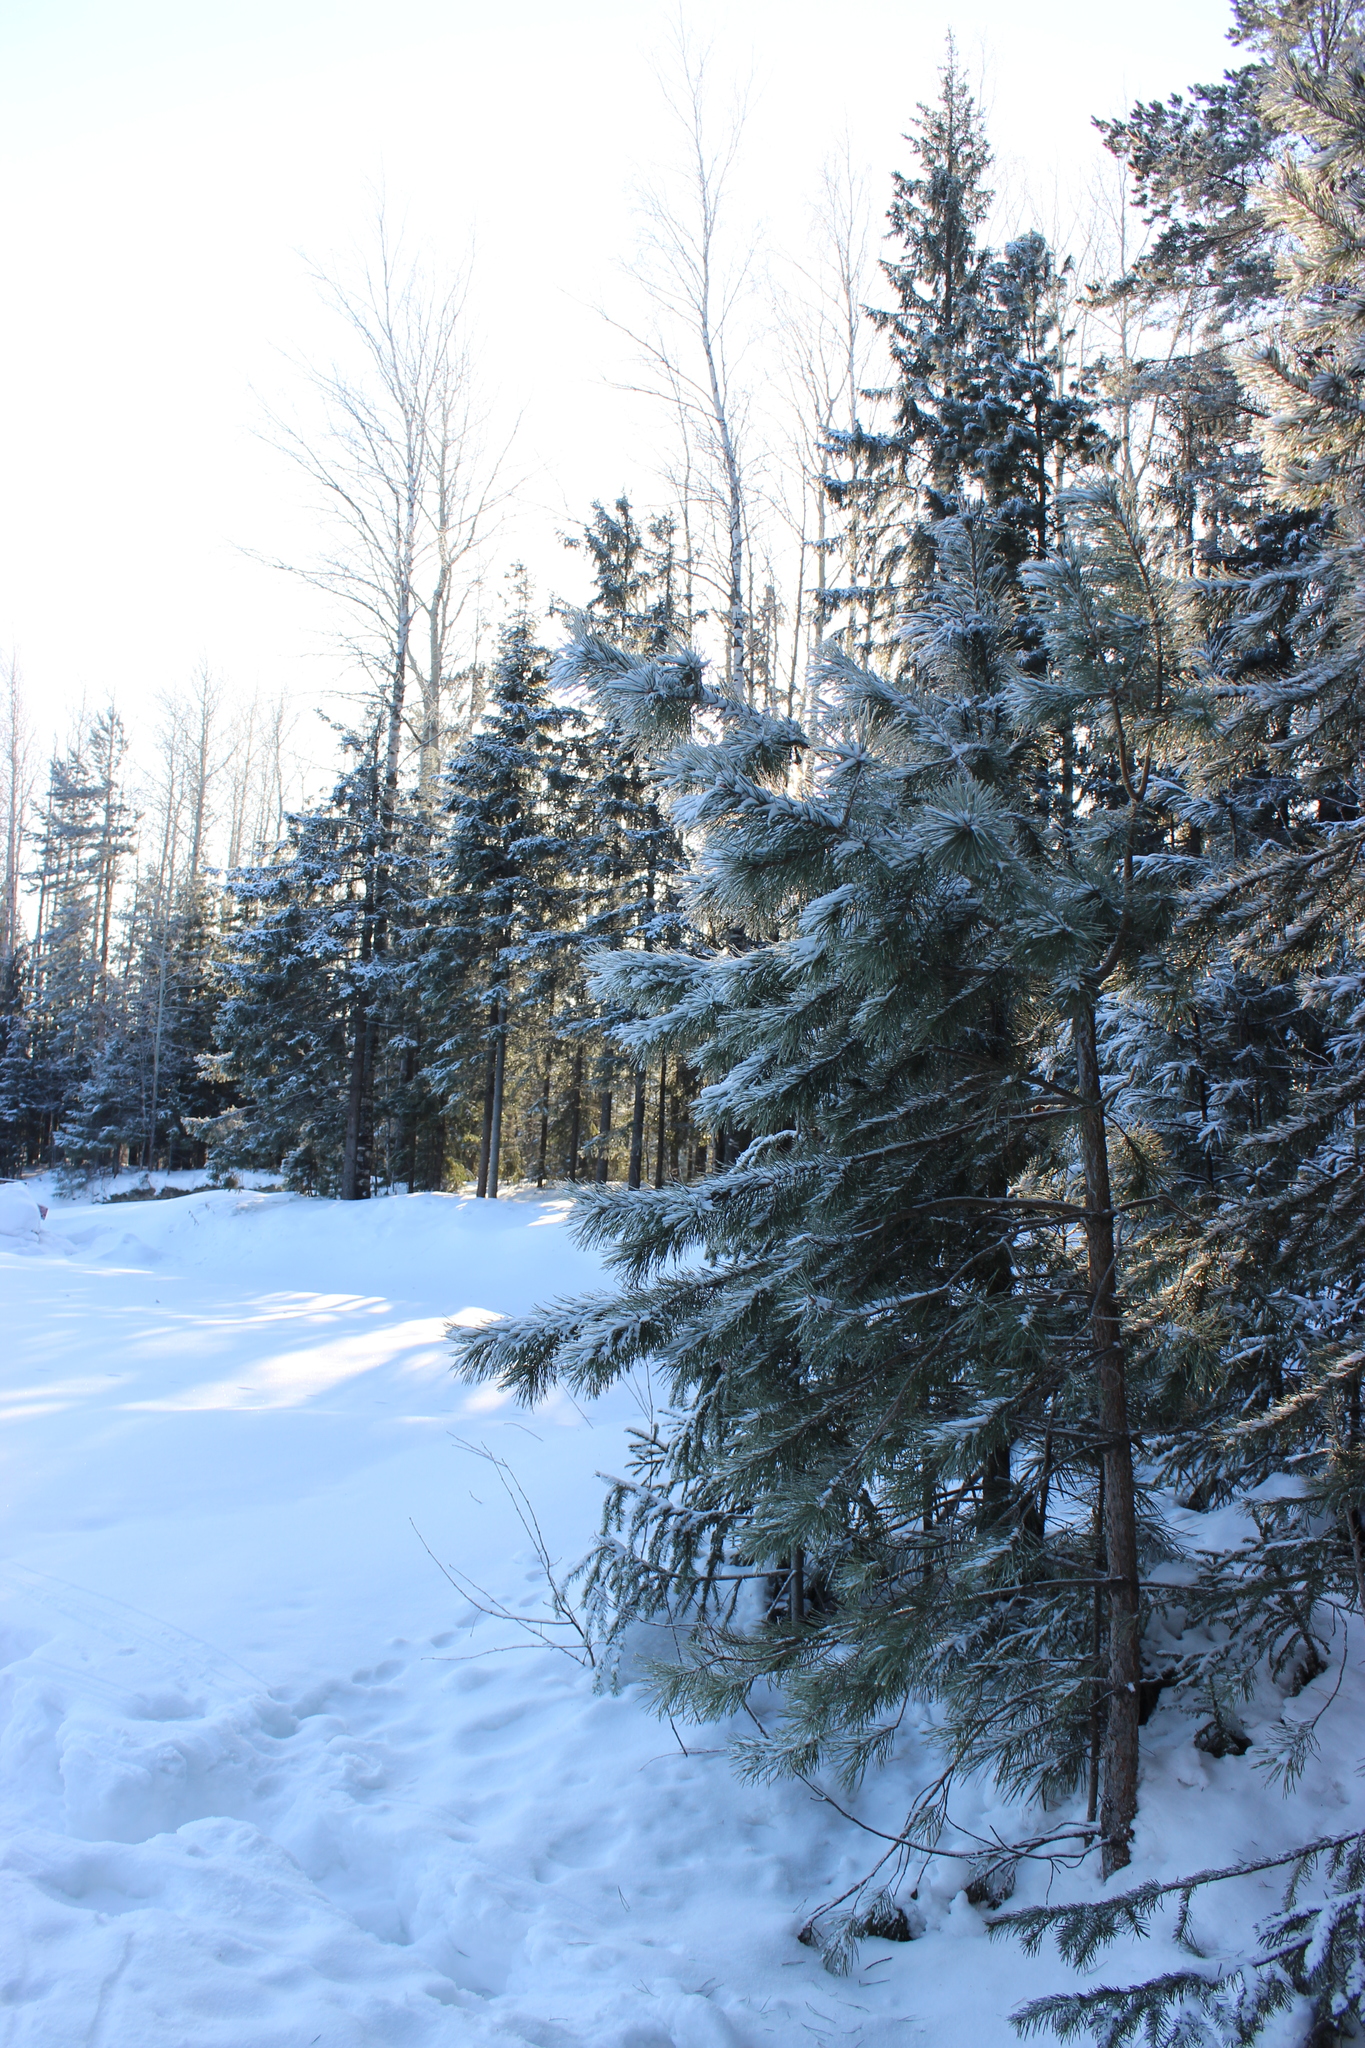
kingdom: Plantae
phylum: Tracheophyta
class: Pinopsida
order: Pinales
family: Pinaceae
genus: Pinus
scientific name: Pinus sylvestris
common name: Scots pine
